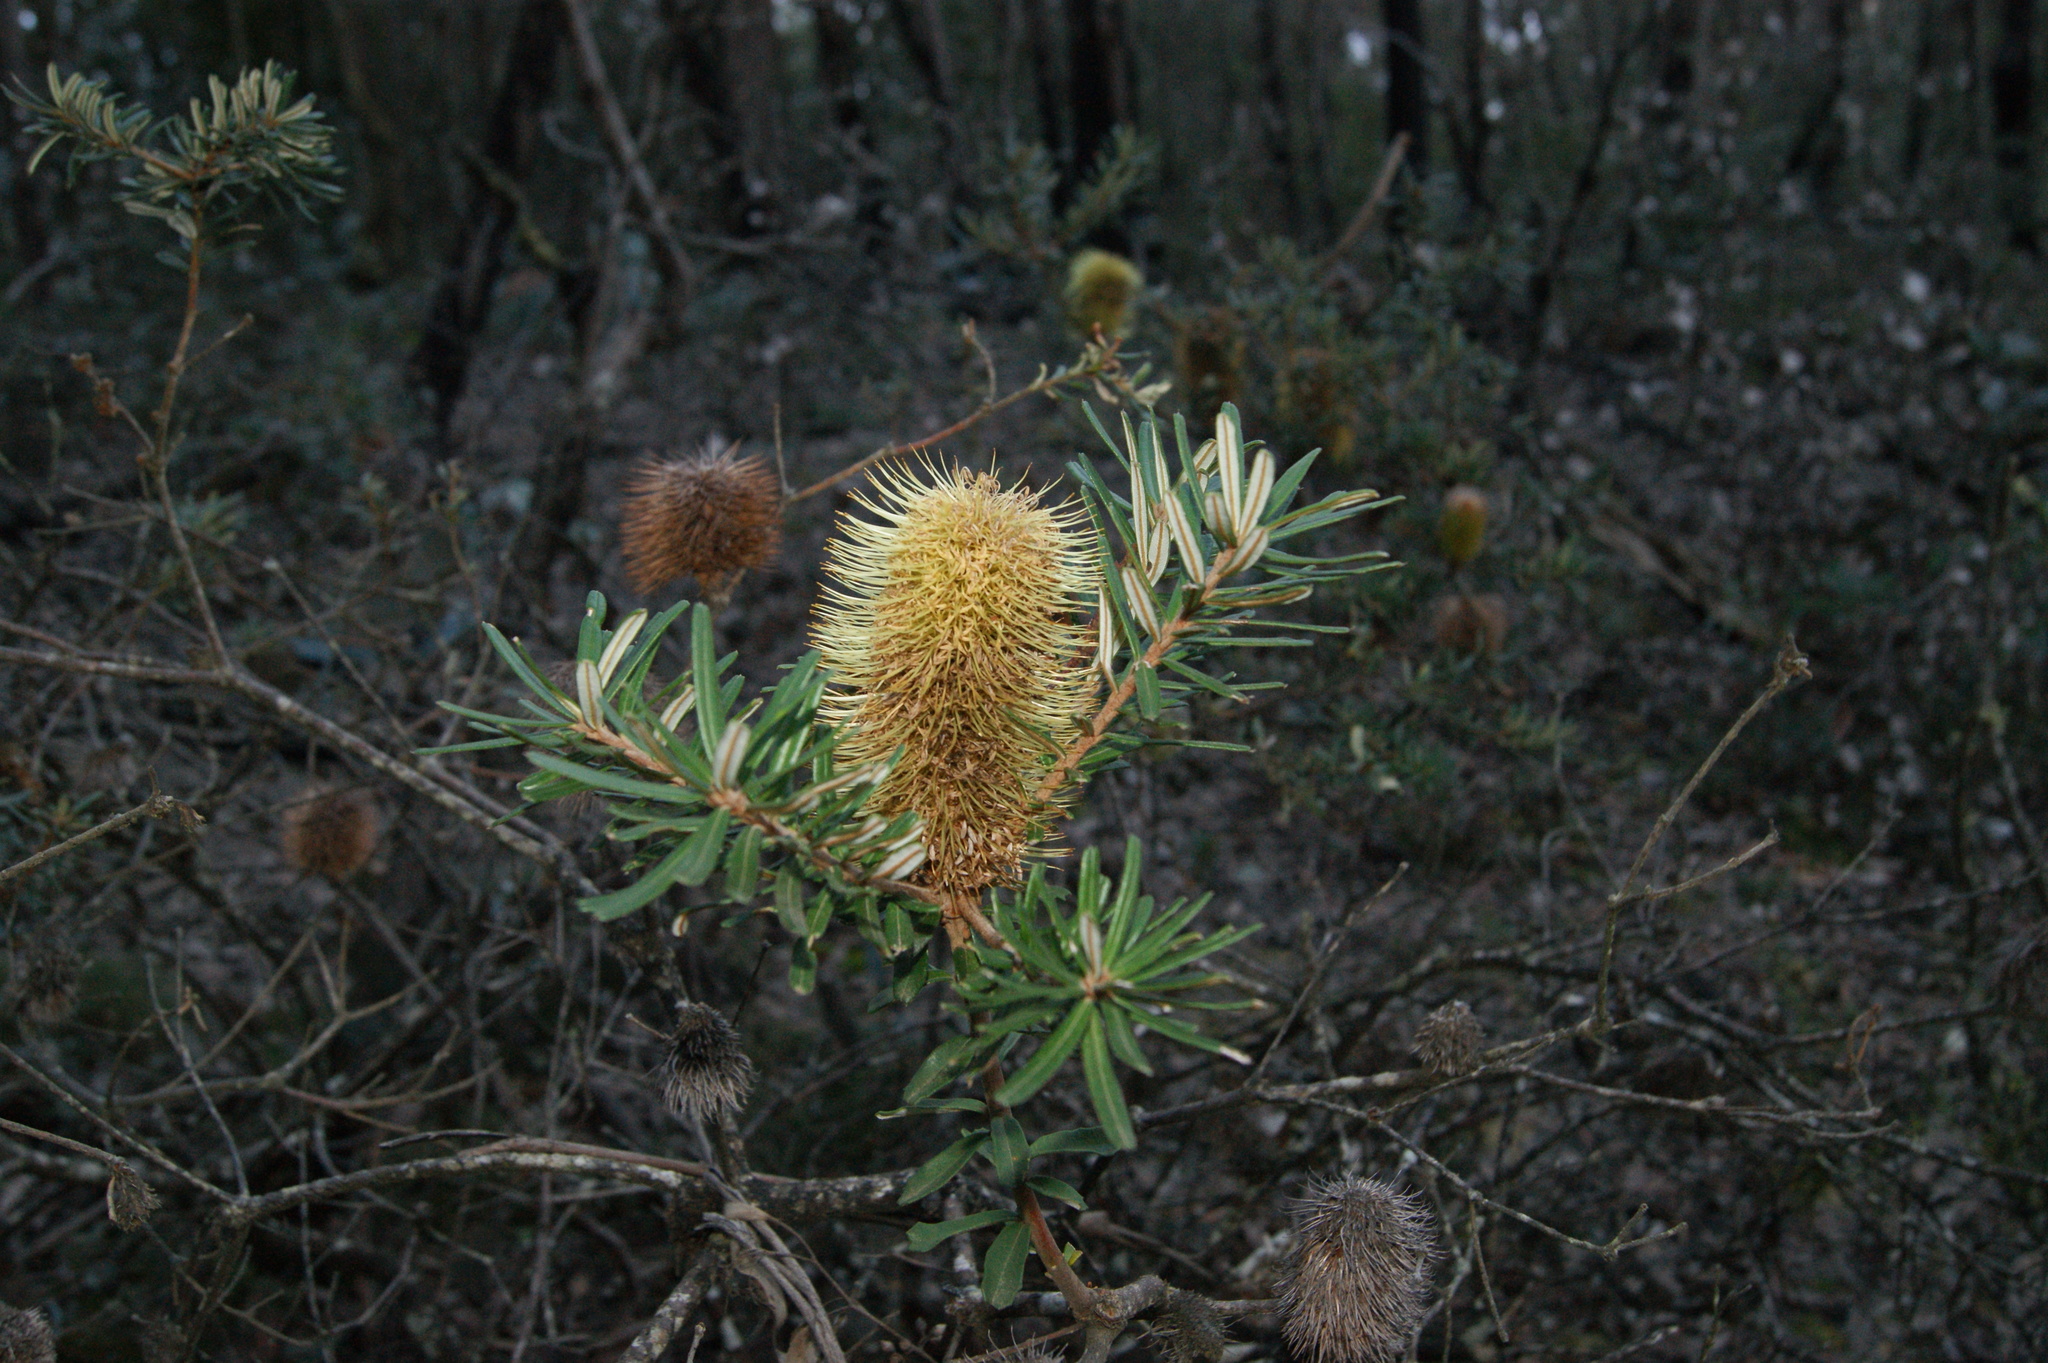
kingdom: Plantae
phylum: Tracheophyta
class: Magnoliopsida
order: Proteales
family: Proteaceae
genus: Banksia
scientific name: Banksia marginata
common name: Silver banksia
